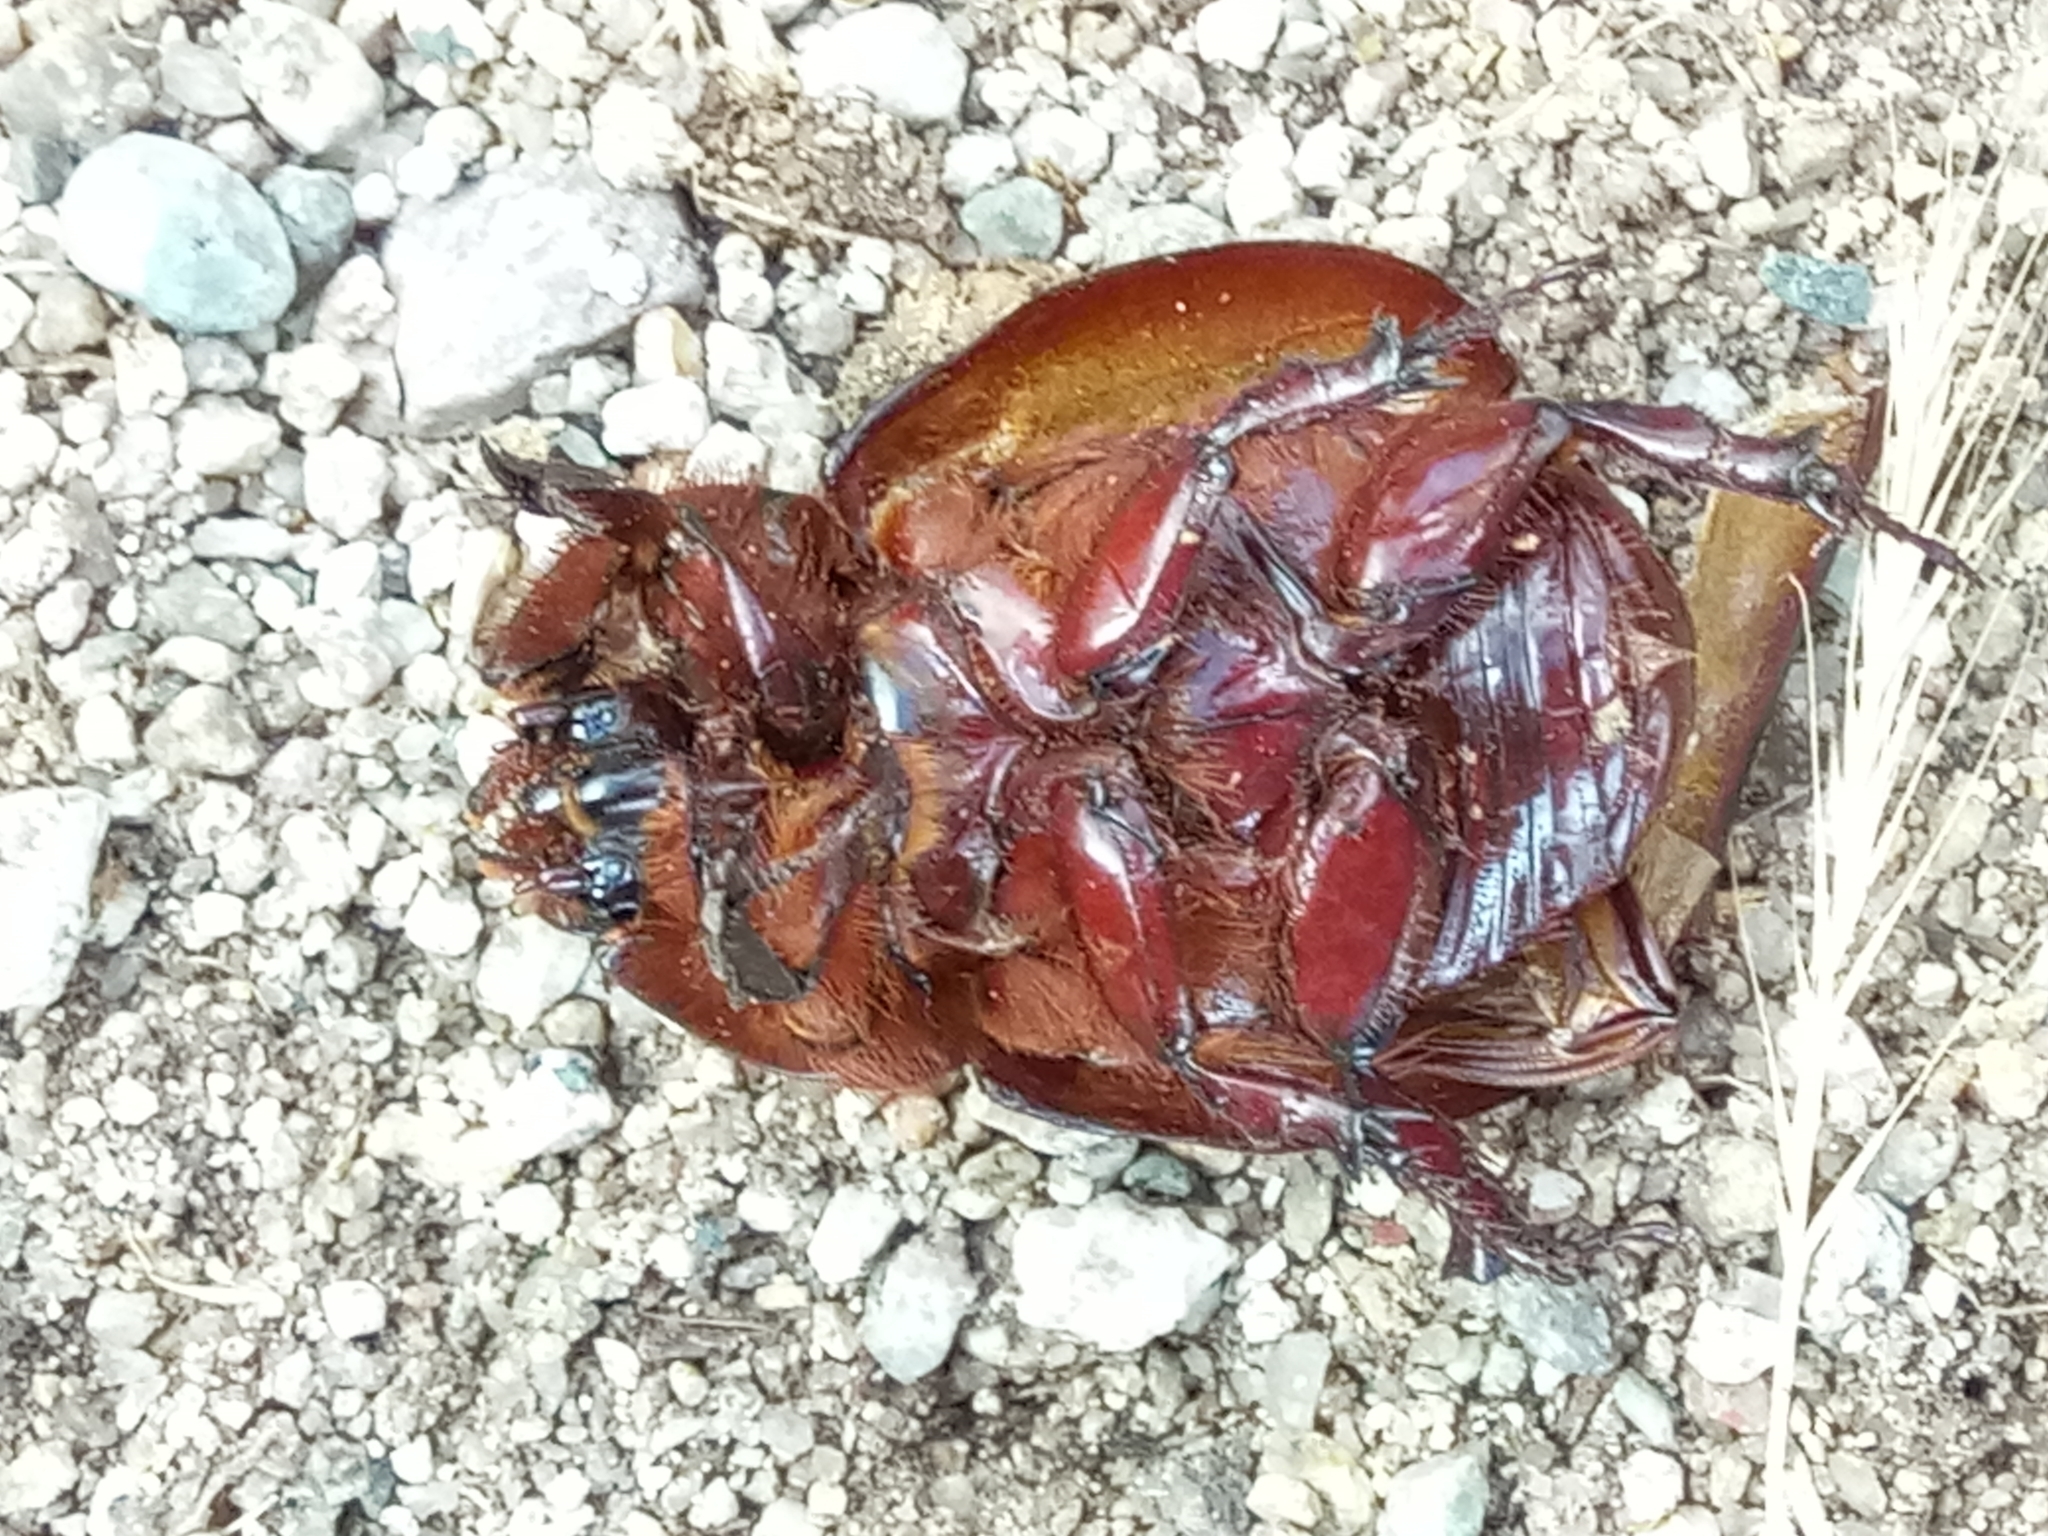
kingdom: Animalia
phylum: Arthropoda
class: Insecta
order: Coleoptera
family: Scarabaeidae
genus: Oryctes
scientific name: Oryctes nasicornis
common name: European rhinoceros beetle
